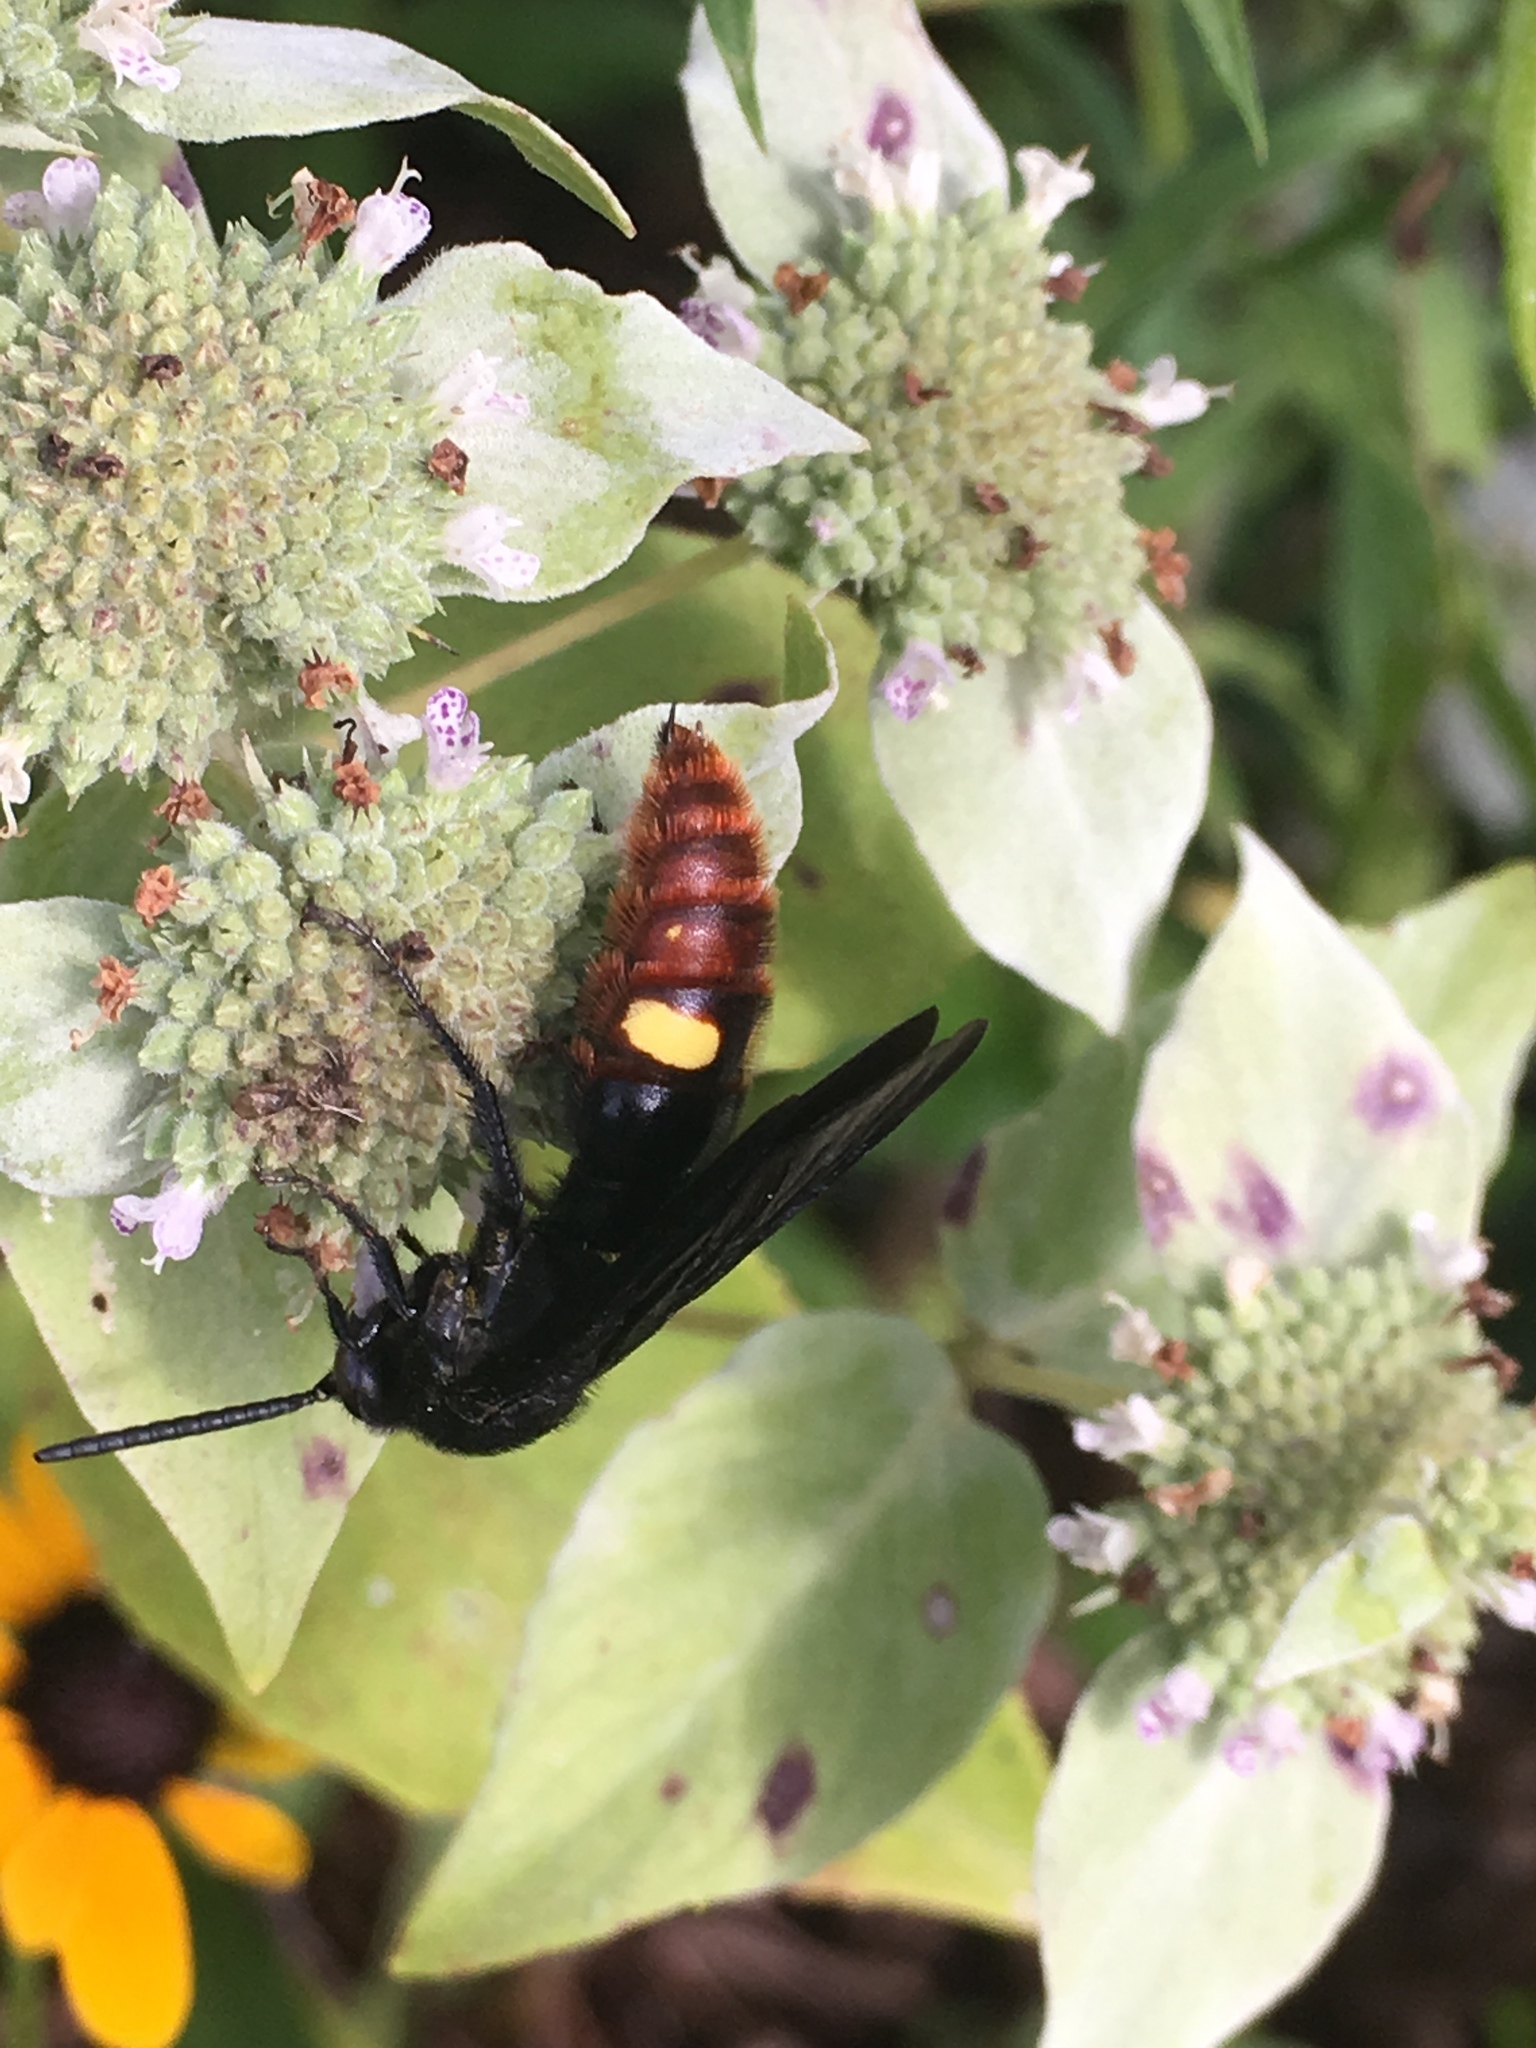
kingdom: Animalia
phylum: Arthropoda
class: Insecta
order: Hymenoptera
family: Scoliidae
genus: Scolia
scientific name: Scolia dubia
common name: Blue-winged scoliid wasp
